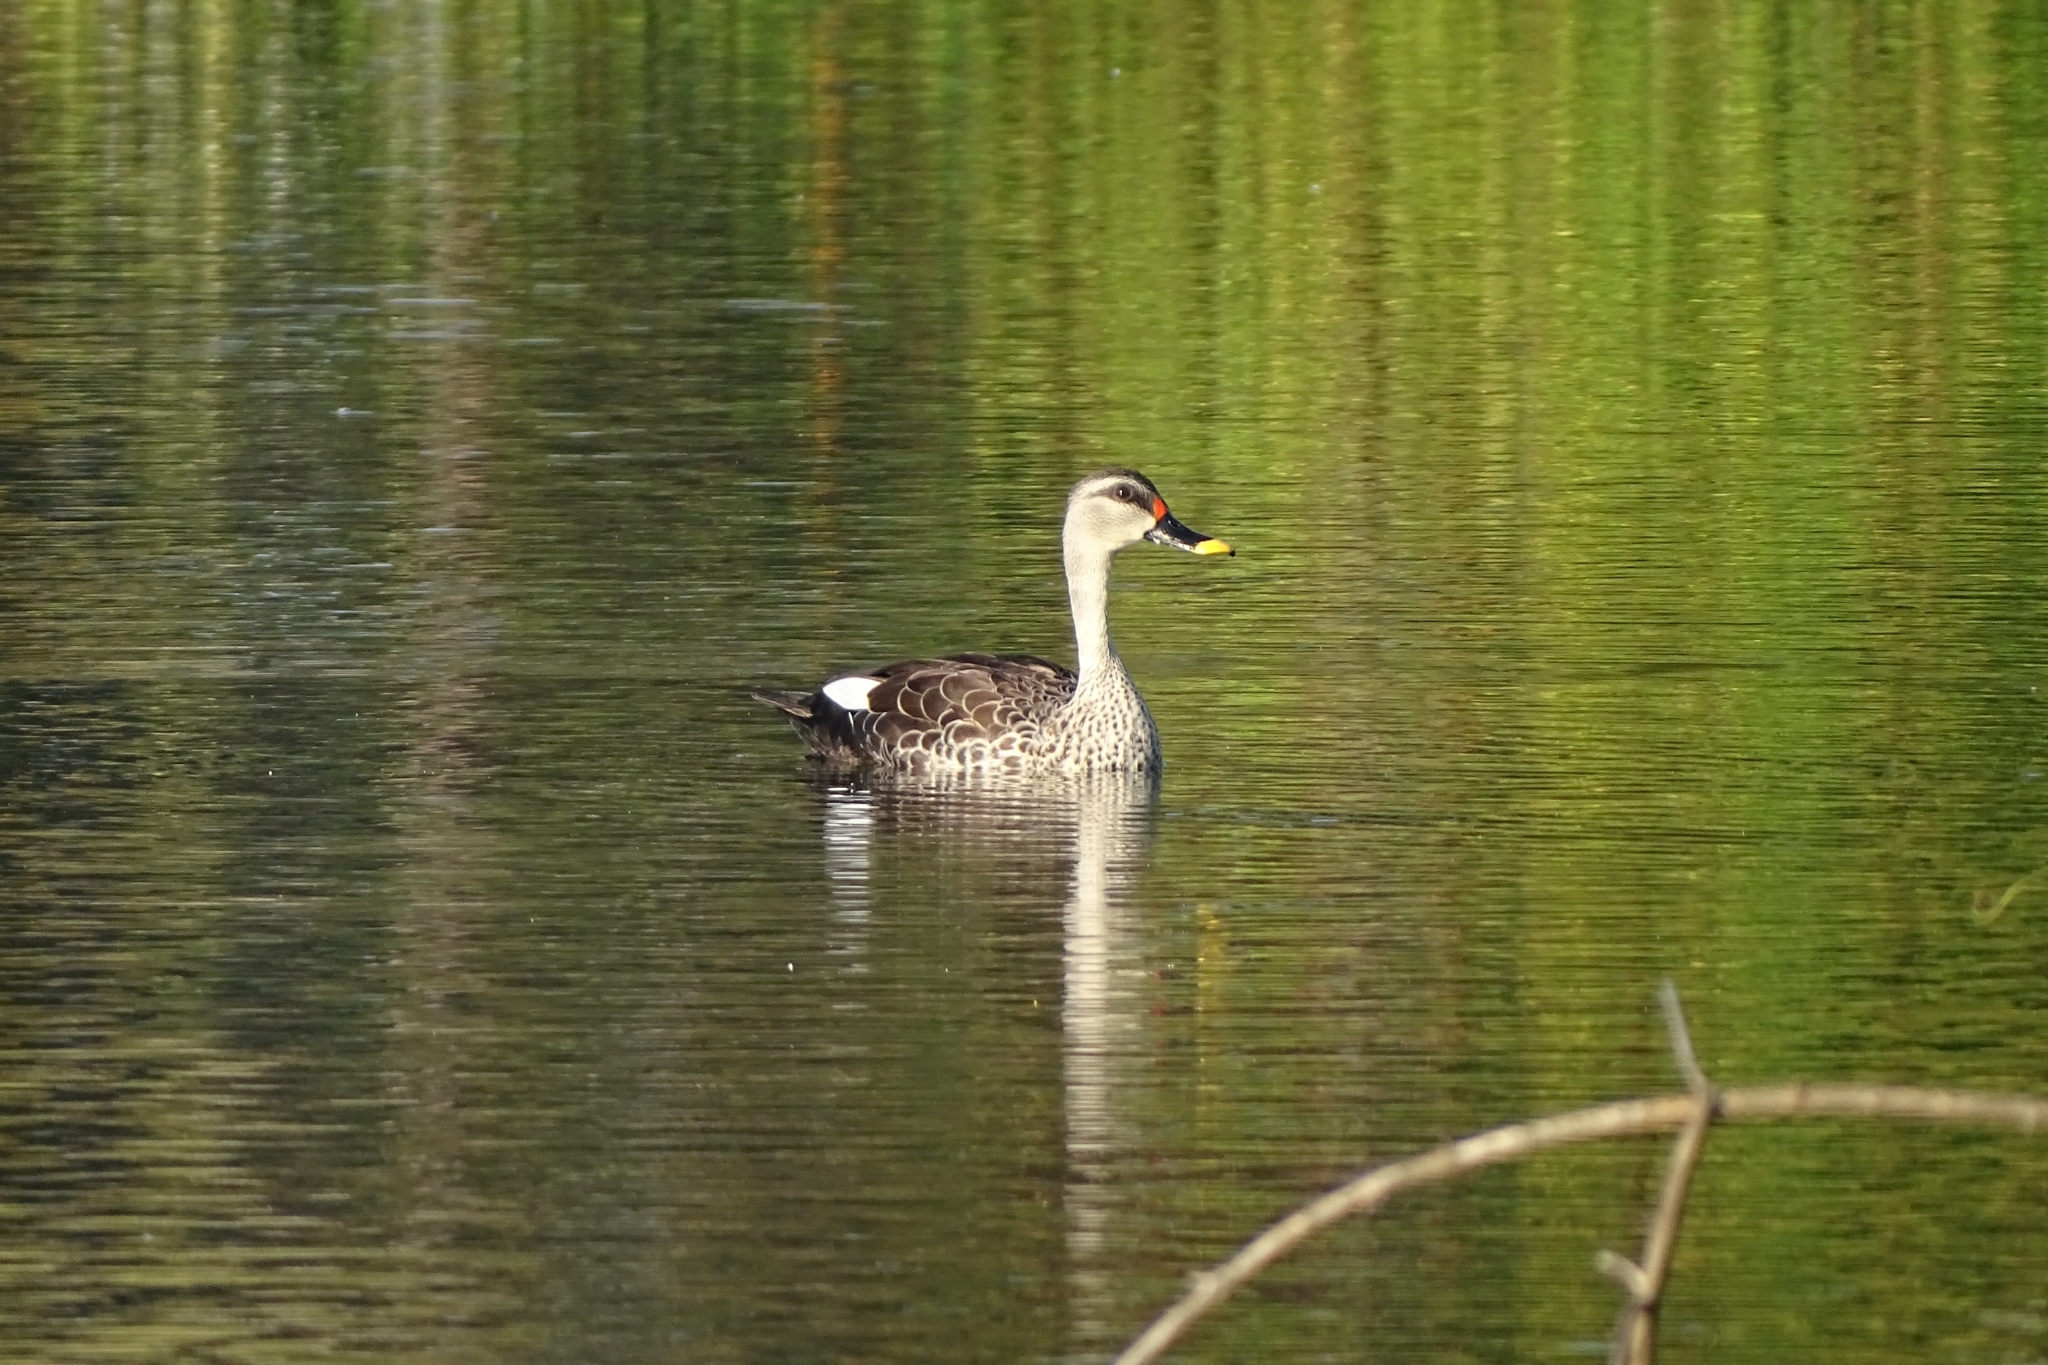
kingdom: Animalia
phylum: Chordata
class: Aves
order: Anseriformes
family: Anatidae
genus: Anas
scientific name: Anas poecilorhyncha
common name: Indian spot-billed duck
